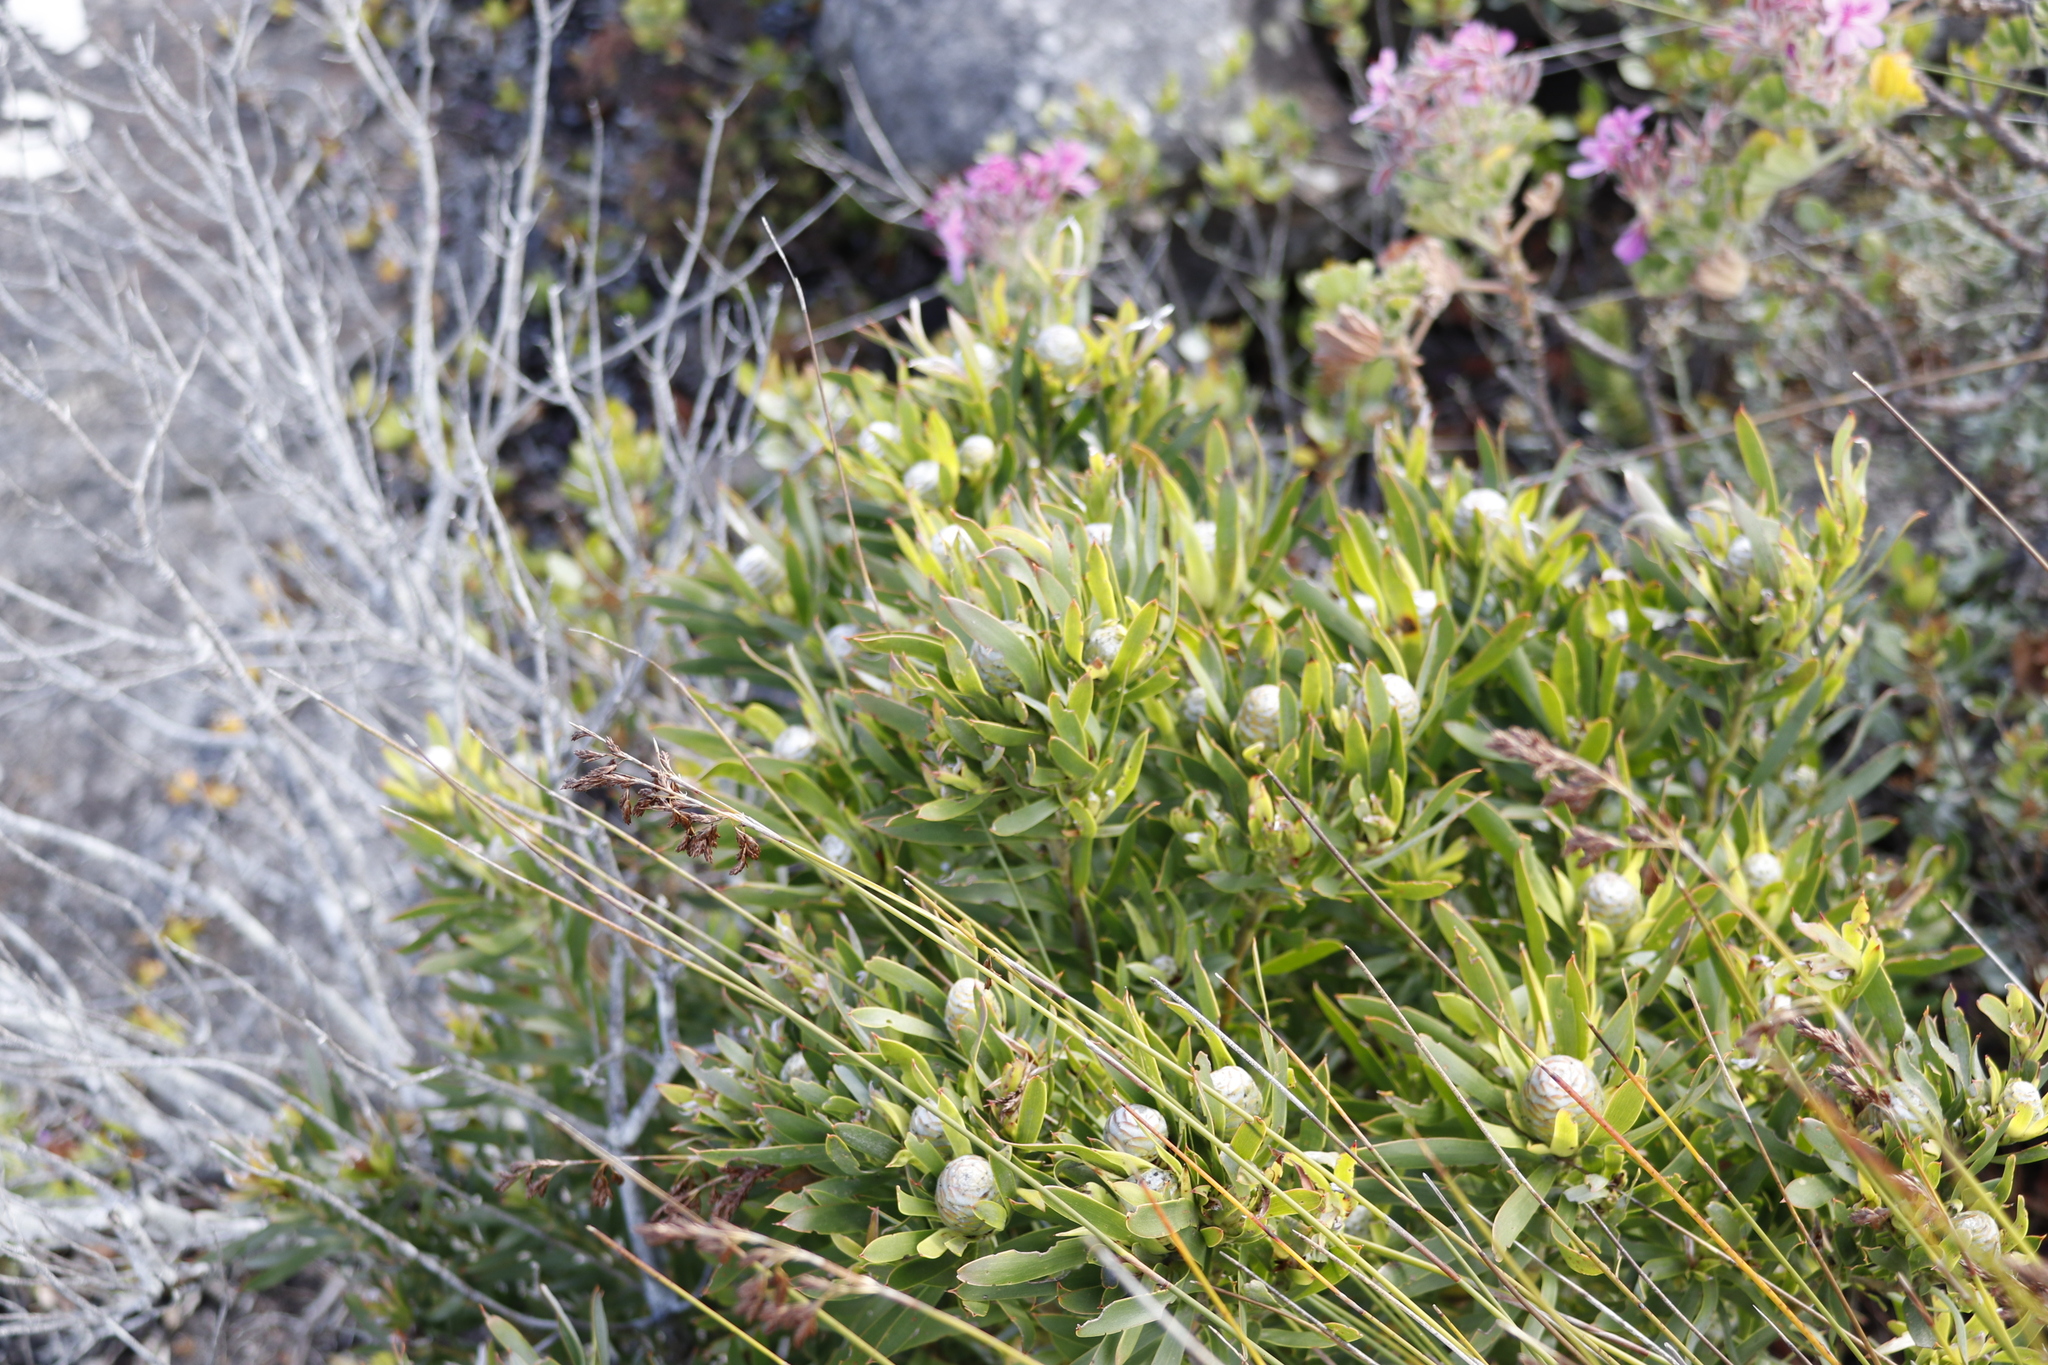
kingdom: Plantae
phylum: Tracheophyta
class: Magnoliopsida
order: Proteales
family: Proteaceae
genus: Leucadendron
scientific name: Leucadendron xanthoconus
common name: Sickle-leaf conebush
